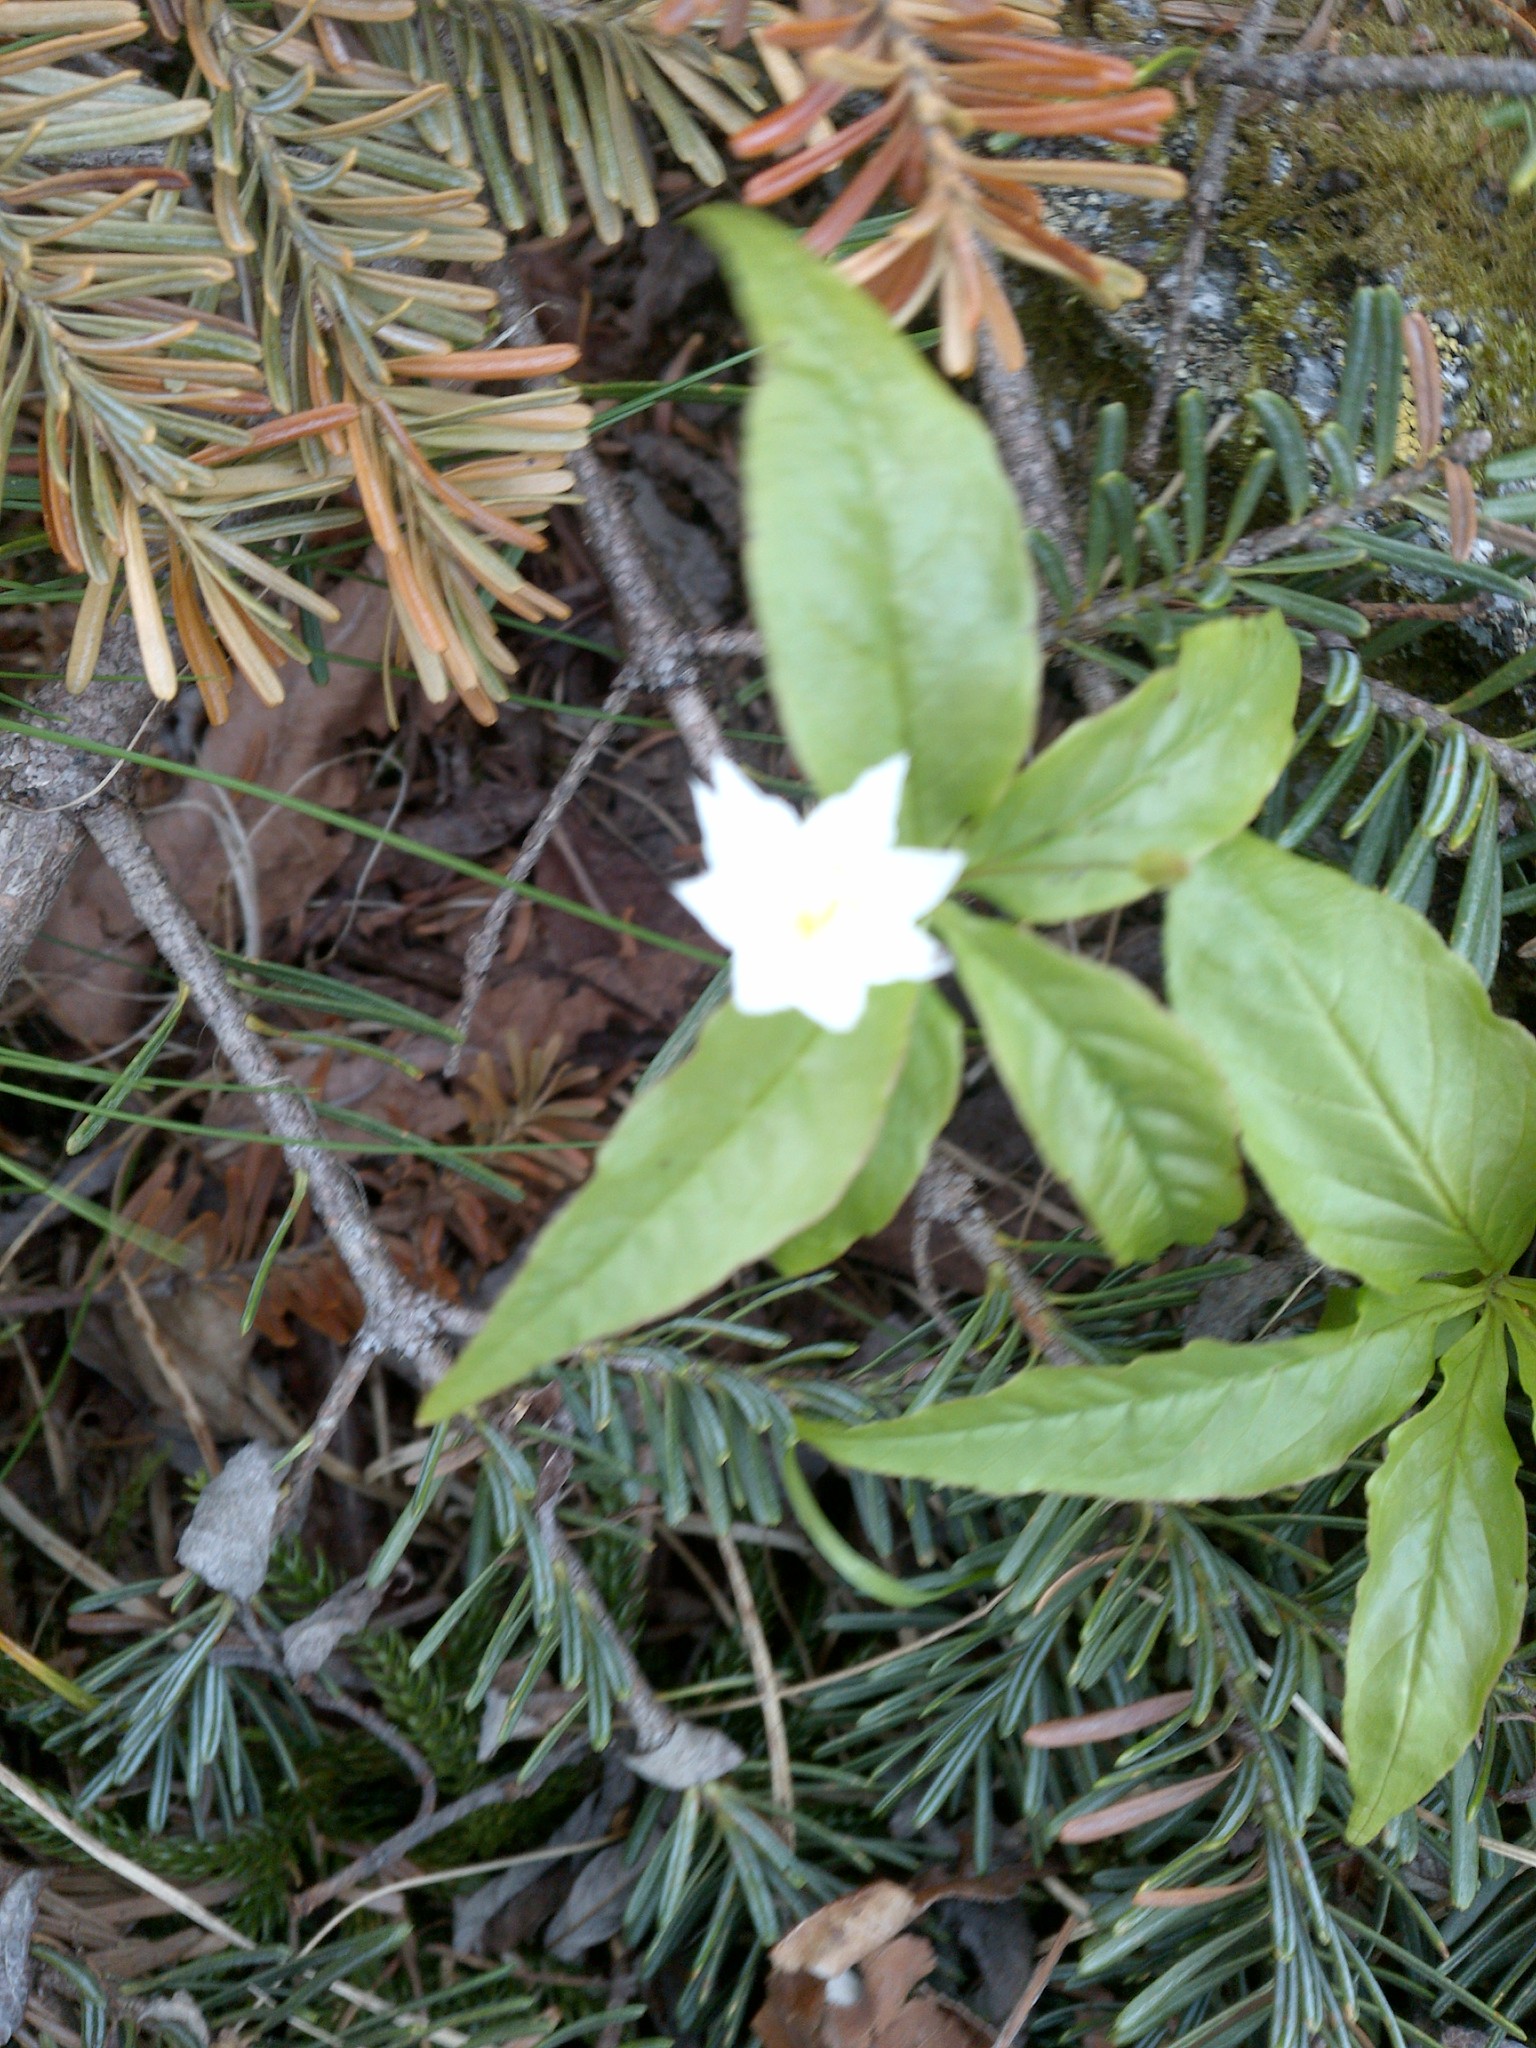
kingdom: Plantae
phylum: Tracheophyta
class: Magnoliopsida
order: Ericales
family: Primulaceae
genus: Lysimachia
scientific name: Lysimachia borealis
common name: American starflower
